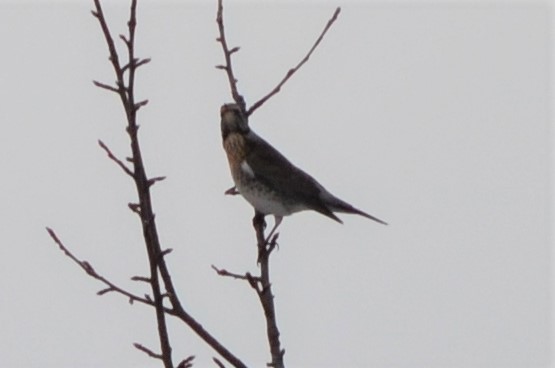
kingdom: Animalia
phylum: Chordata
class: Aves
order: Passeriformes
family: Turdidae
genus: Turdus
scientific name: Turdus pilaris
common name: Fieldfare
